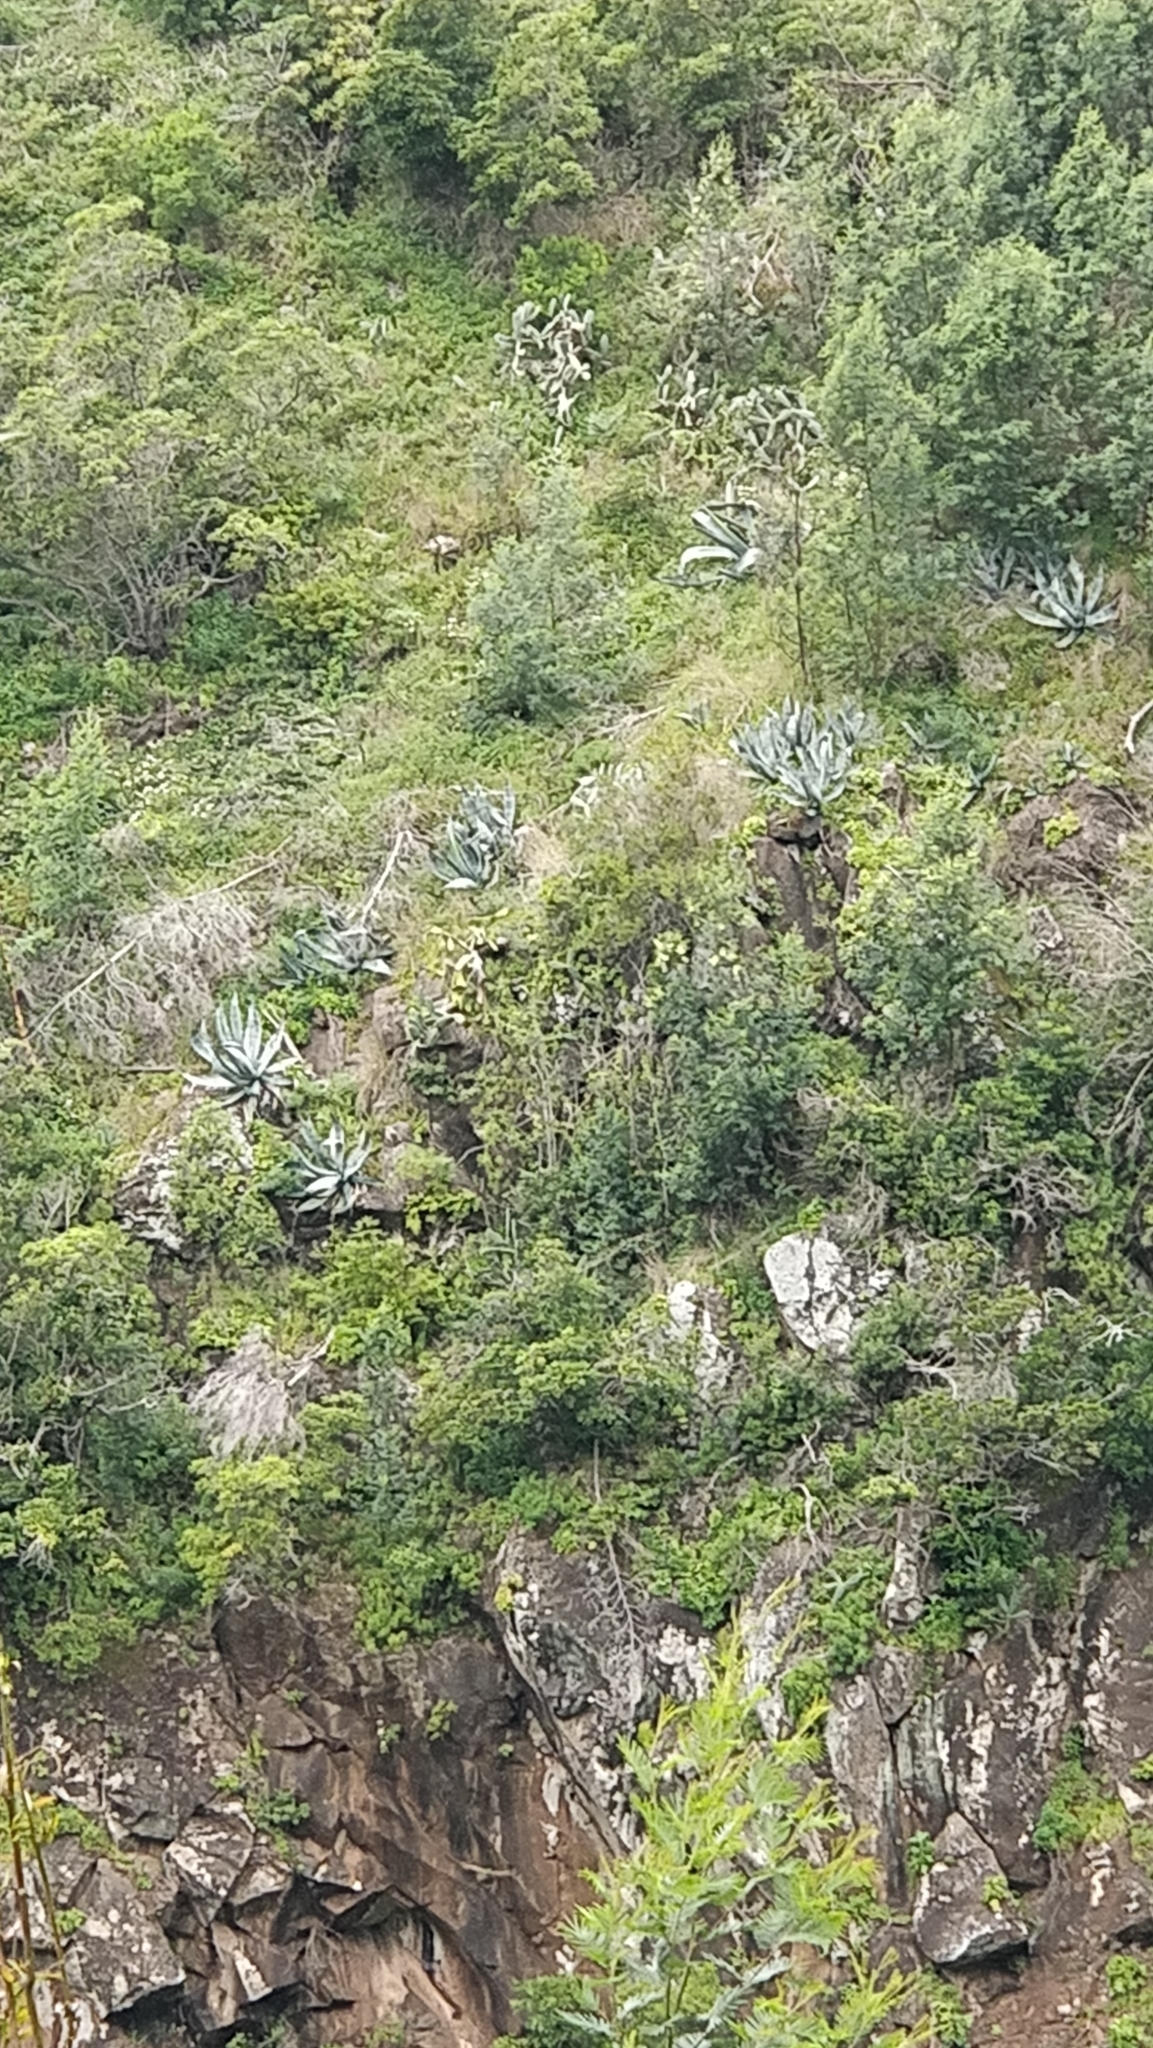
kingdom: Plantae
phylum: Tracheophyta
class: Liliopsida
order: Asparagales
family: Asparagaceae
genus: Agave
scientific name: Agave americana
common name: Centuryplant
